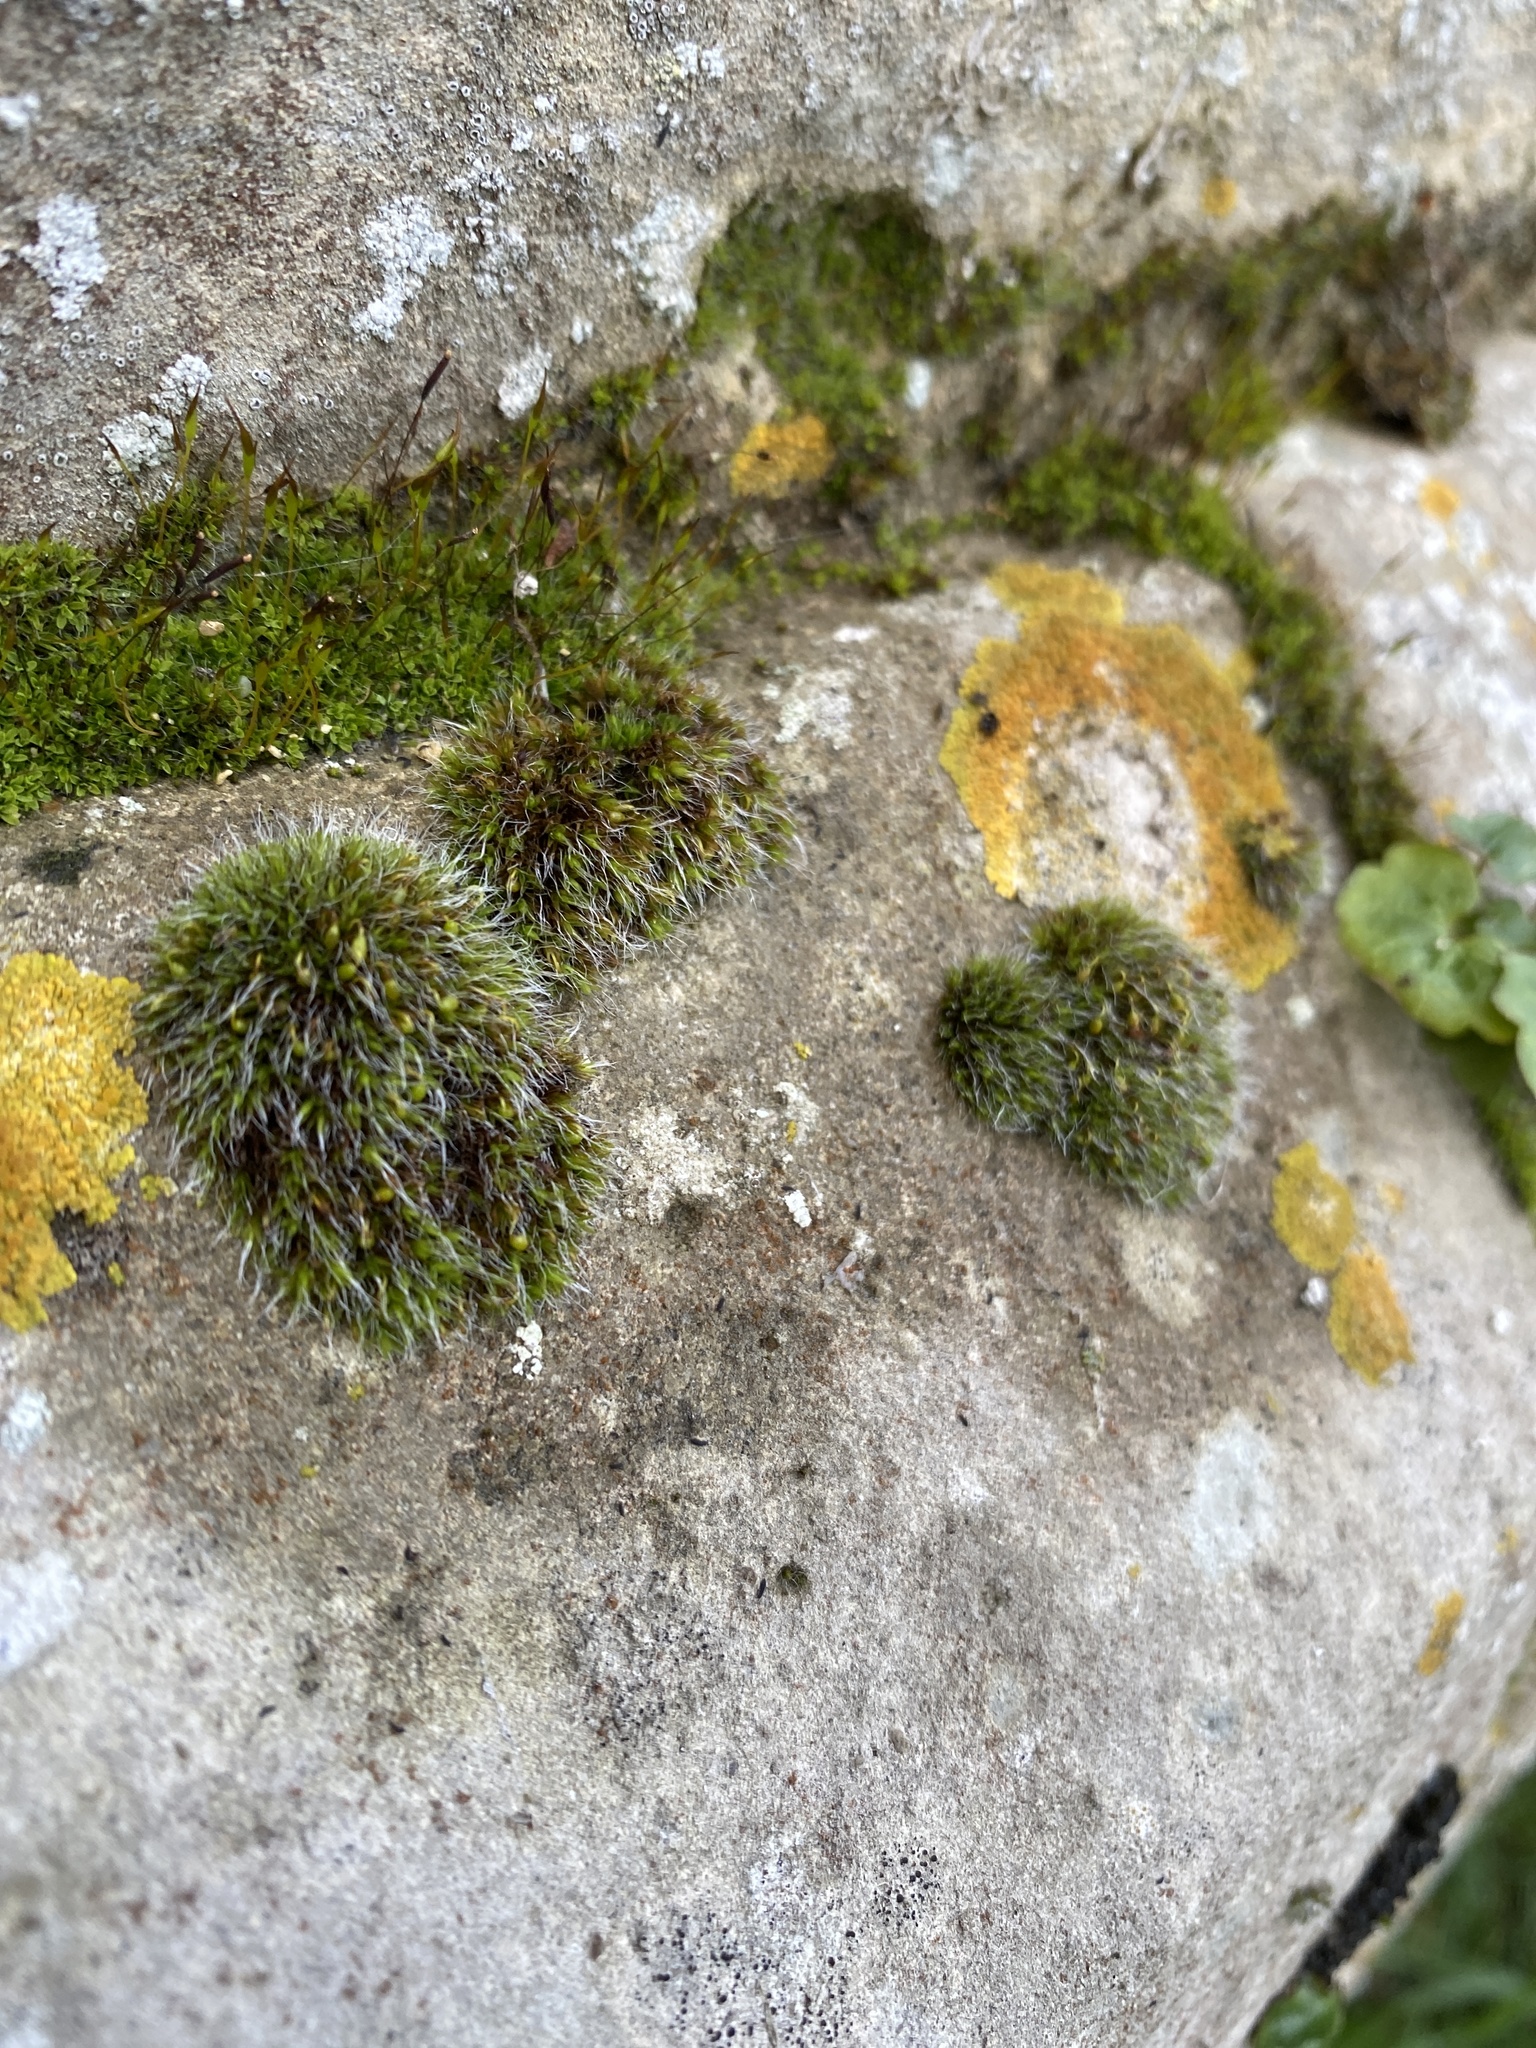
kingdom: Plantae
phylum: Bryophyta
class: Bryopsida
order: Grimmiales
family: Grimmiaceae
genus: Grimmia
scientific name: Grimmia pulvinata
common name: Grey-cushioned grimmia
